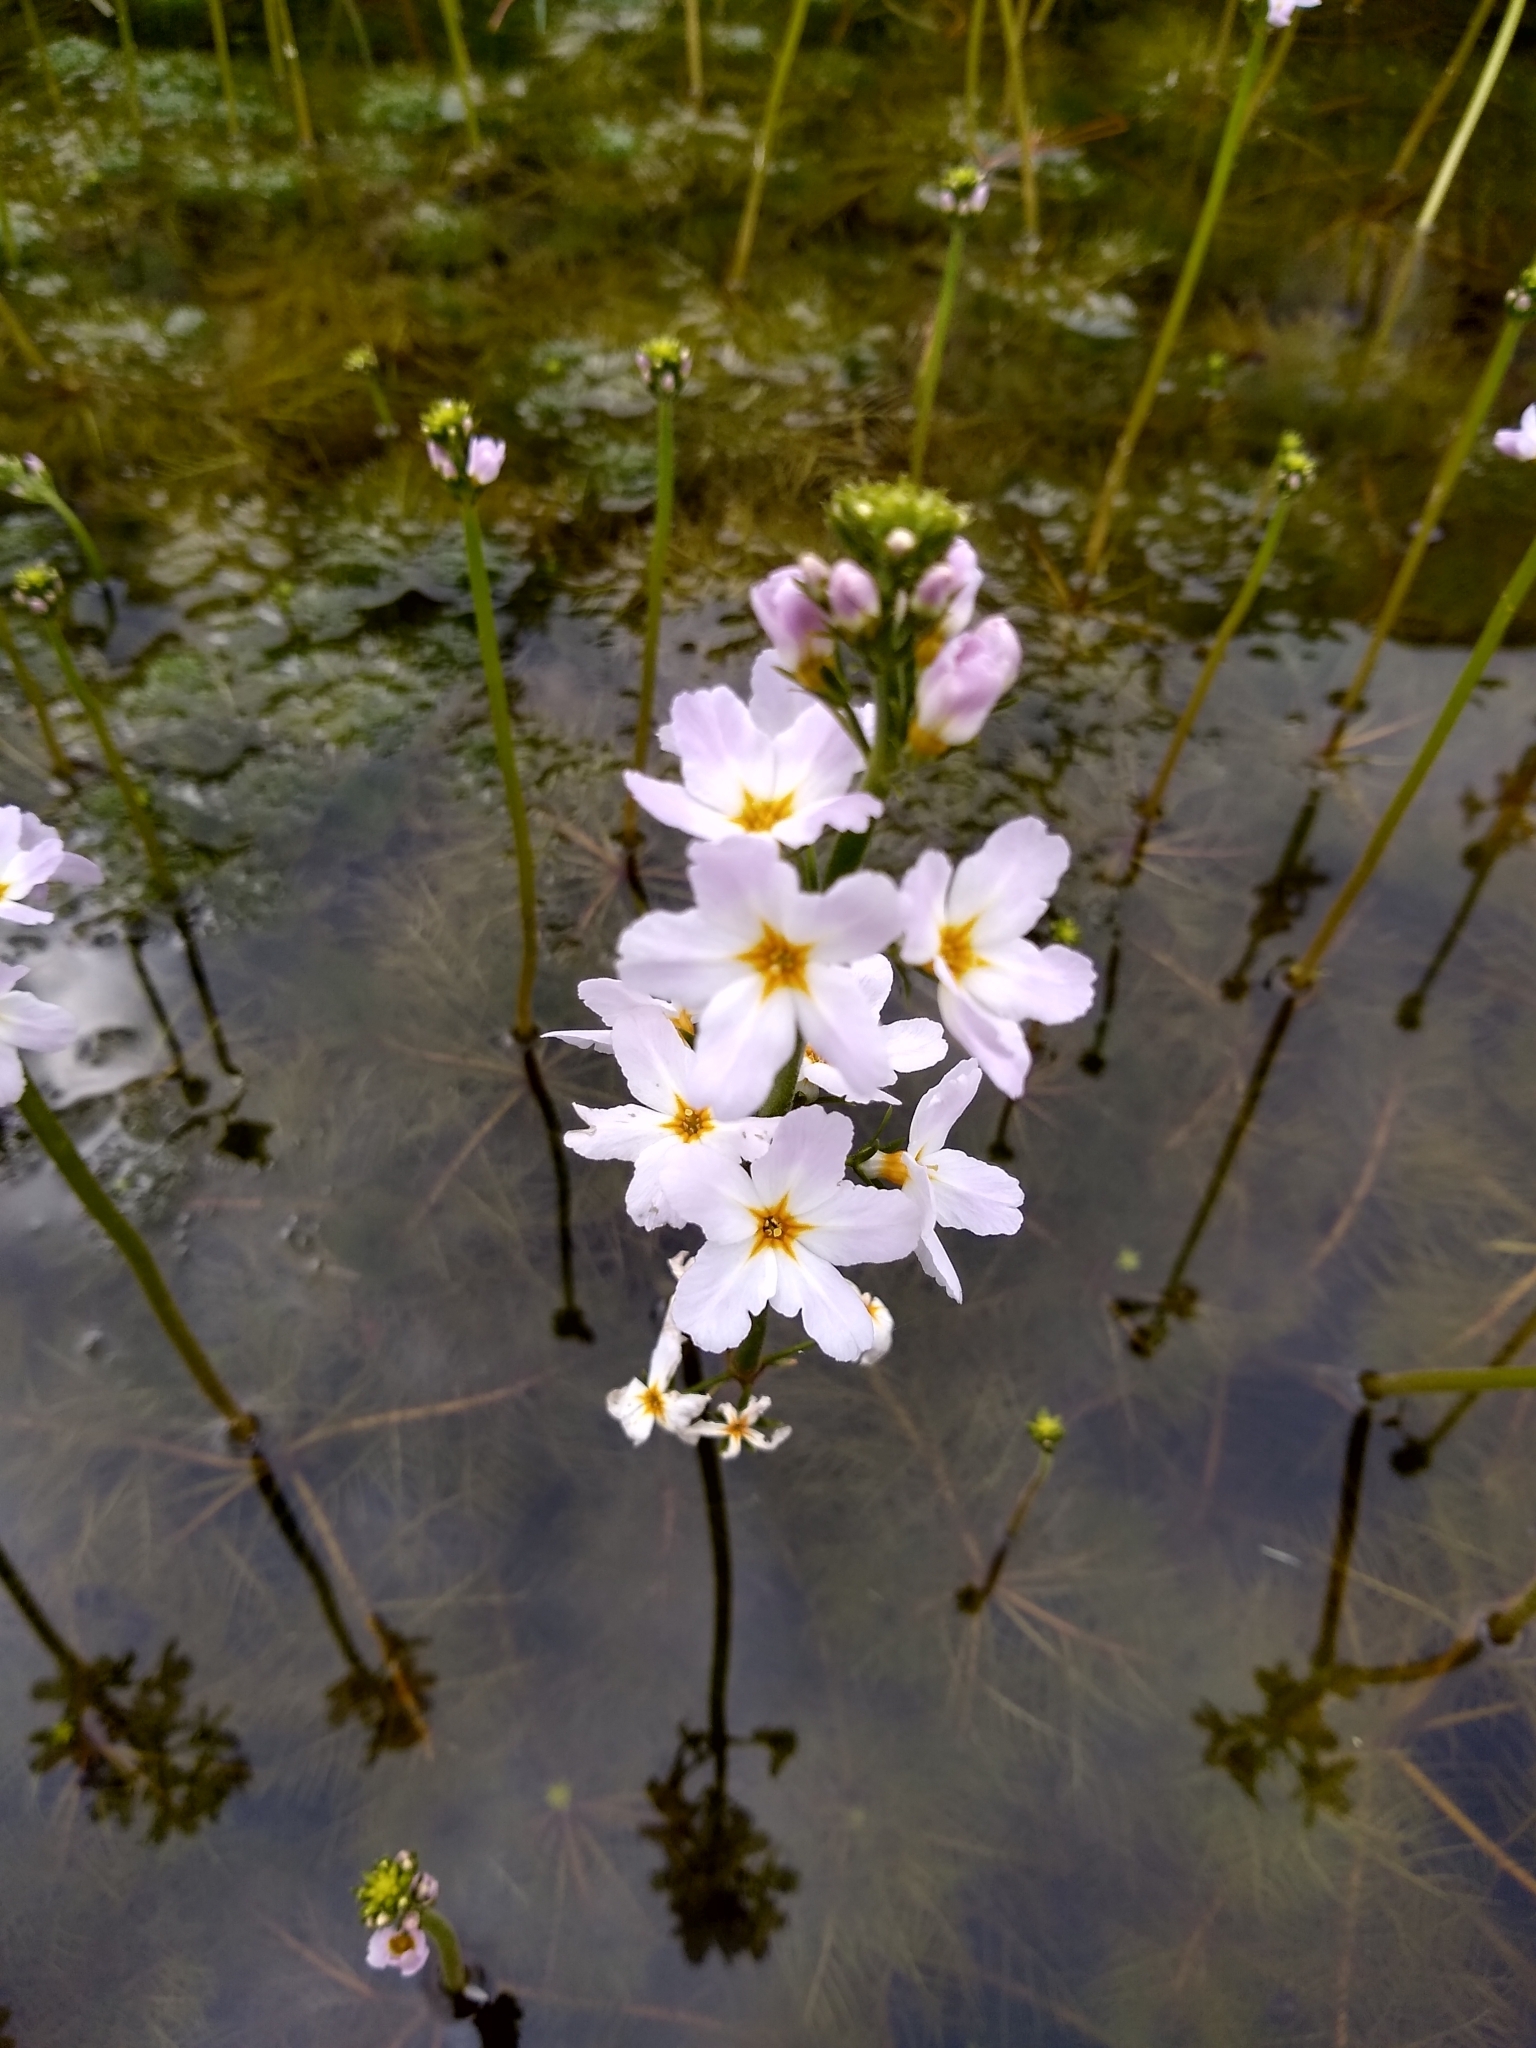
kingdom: Plantae
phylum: Tracheophyta
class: Magnoliopsida
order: Ericales
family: Primulaceae
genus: Hottonia
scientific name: Hottonia palustris
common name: Water-violet
